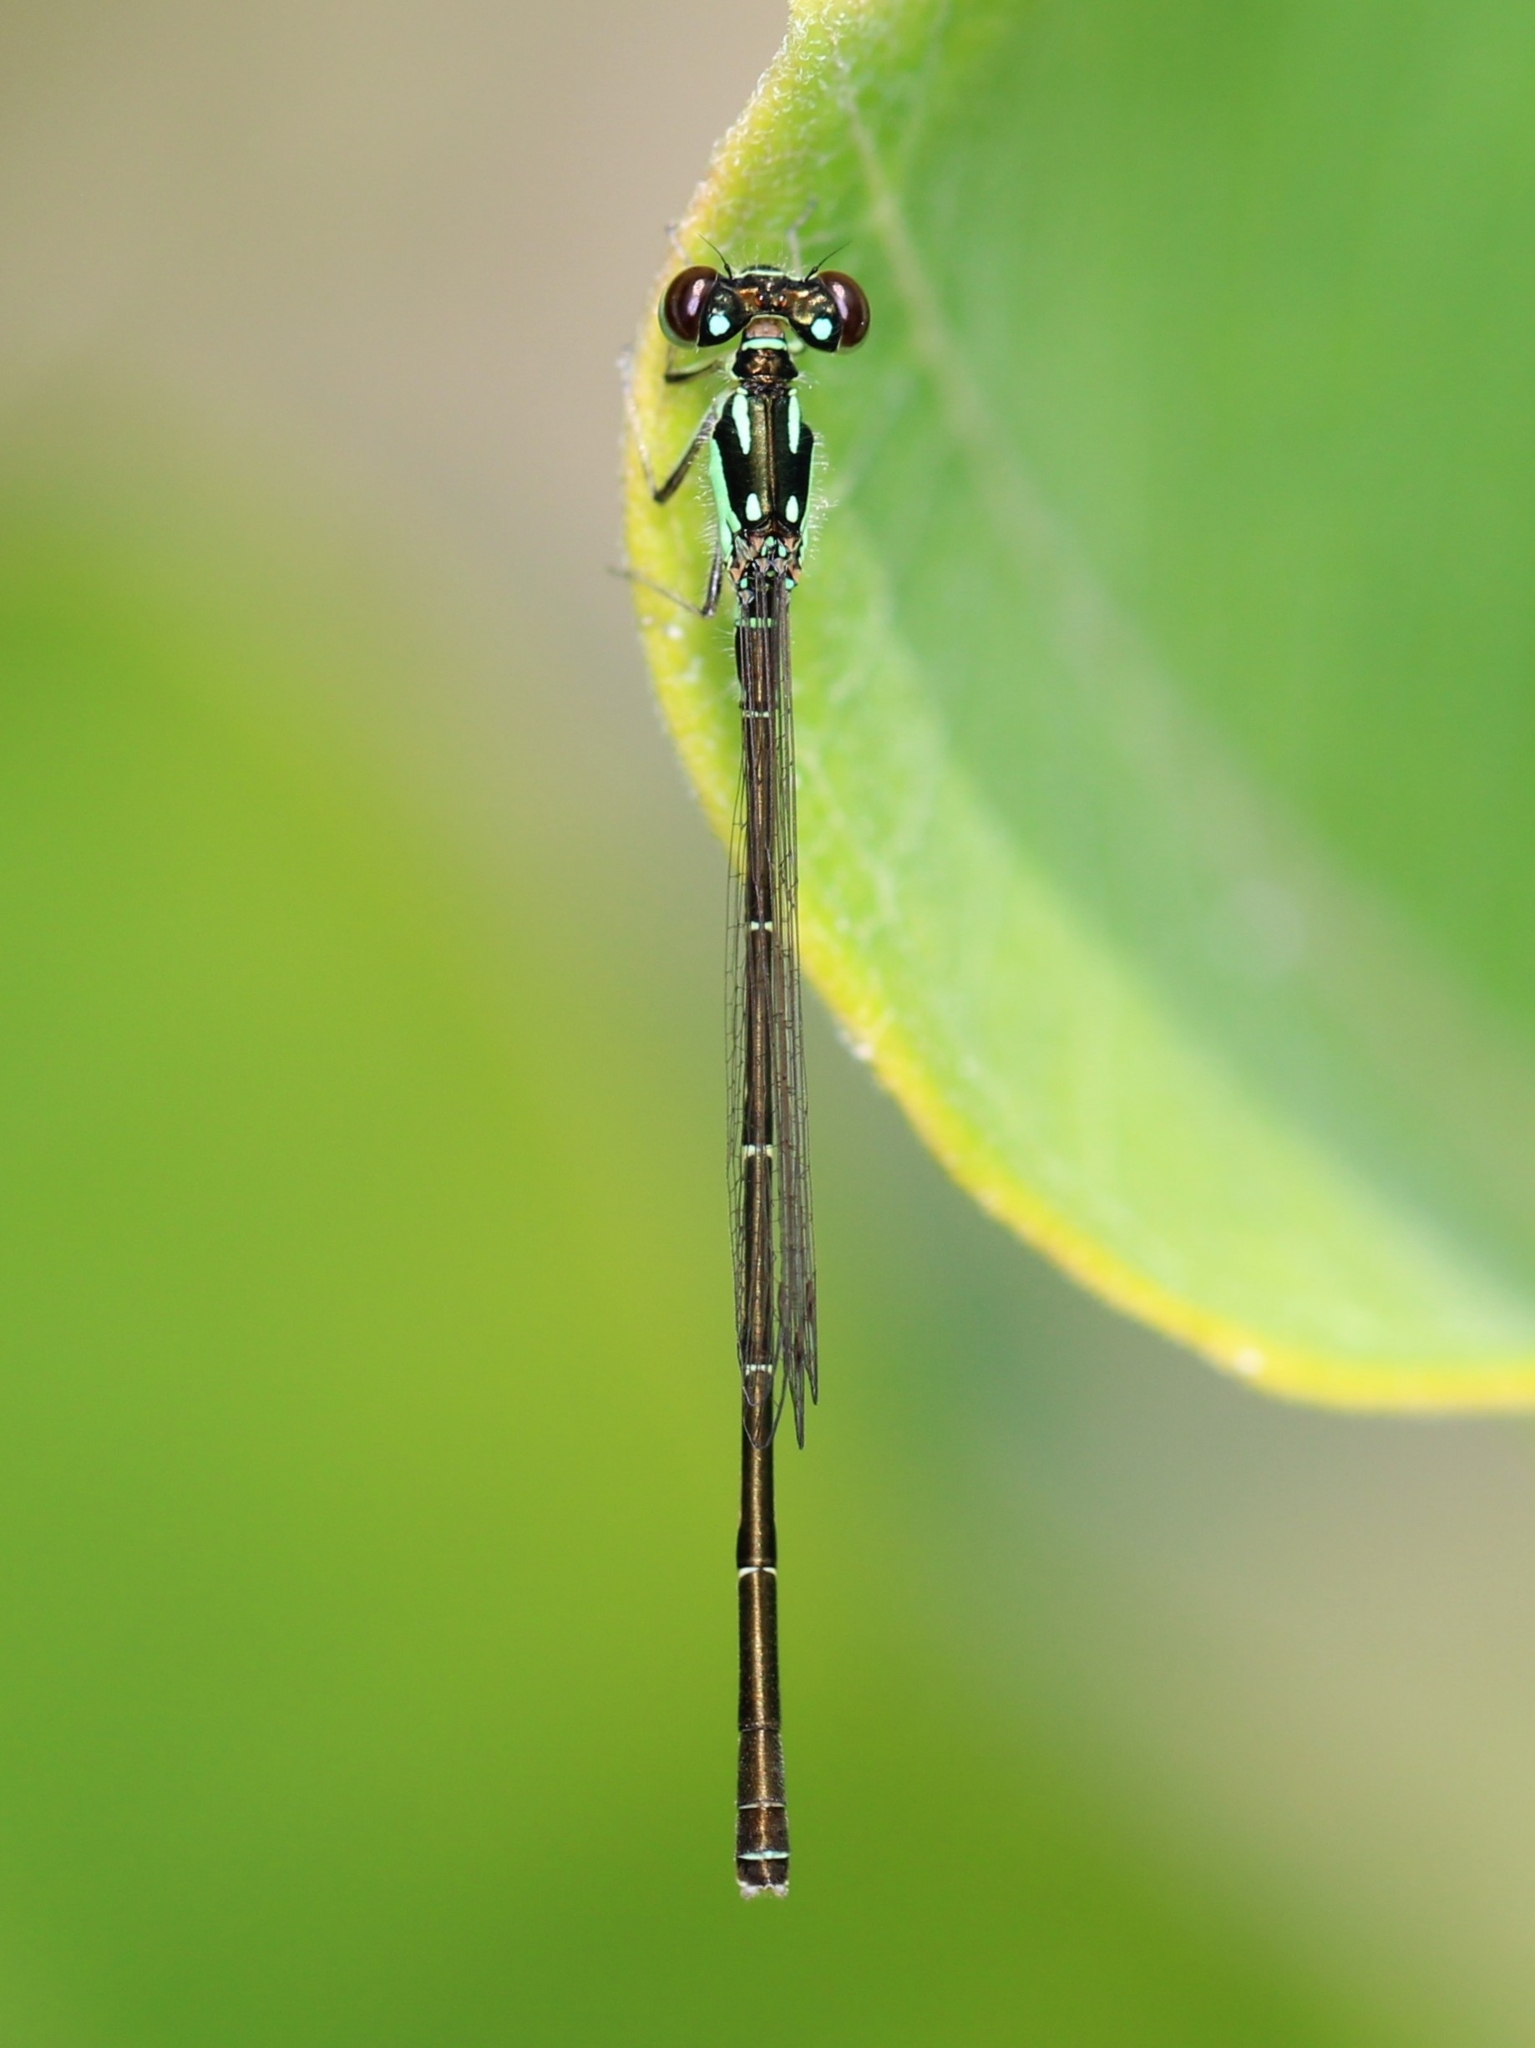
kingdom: Animalia
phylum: Arthropoda
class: Insecta
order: Odonata
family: Coenagrionidae
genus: Ischnura
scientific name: Ischnura posita
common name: Fragile forktail
